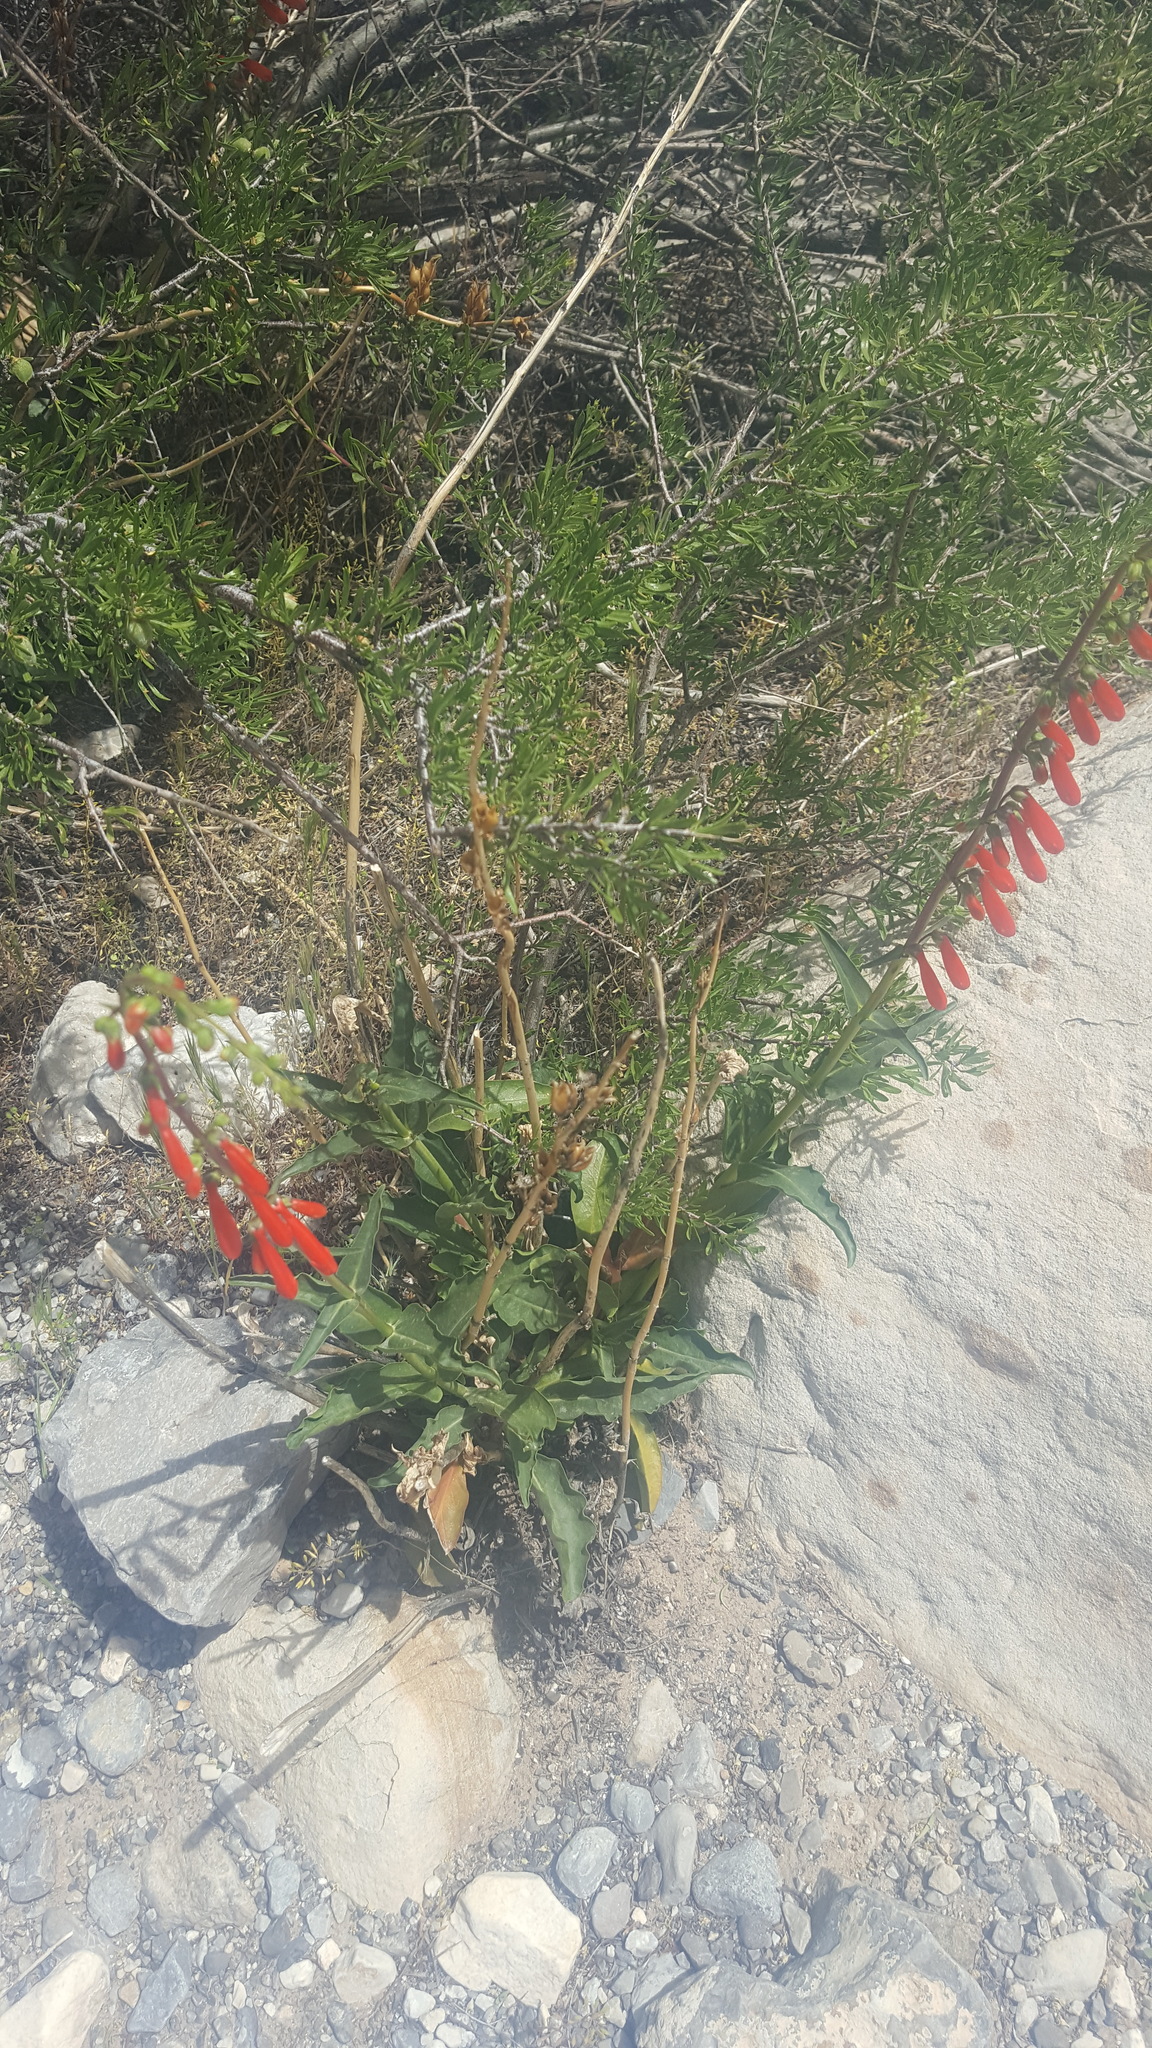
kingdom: Plantae
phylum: Tracheophyta
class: Magnoliopsida
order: Lamiales
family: Plantaginaceae
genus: Penstemon
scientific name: Penstemon eatonii
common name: Eaton's penstemon
